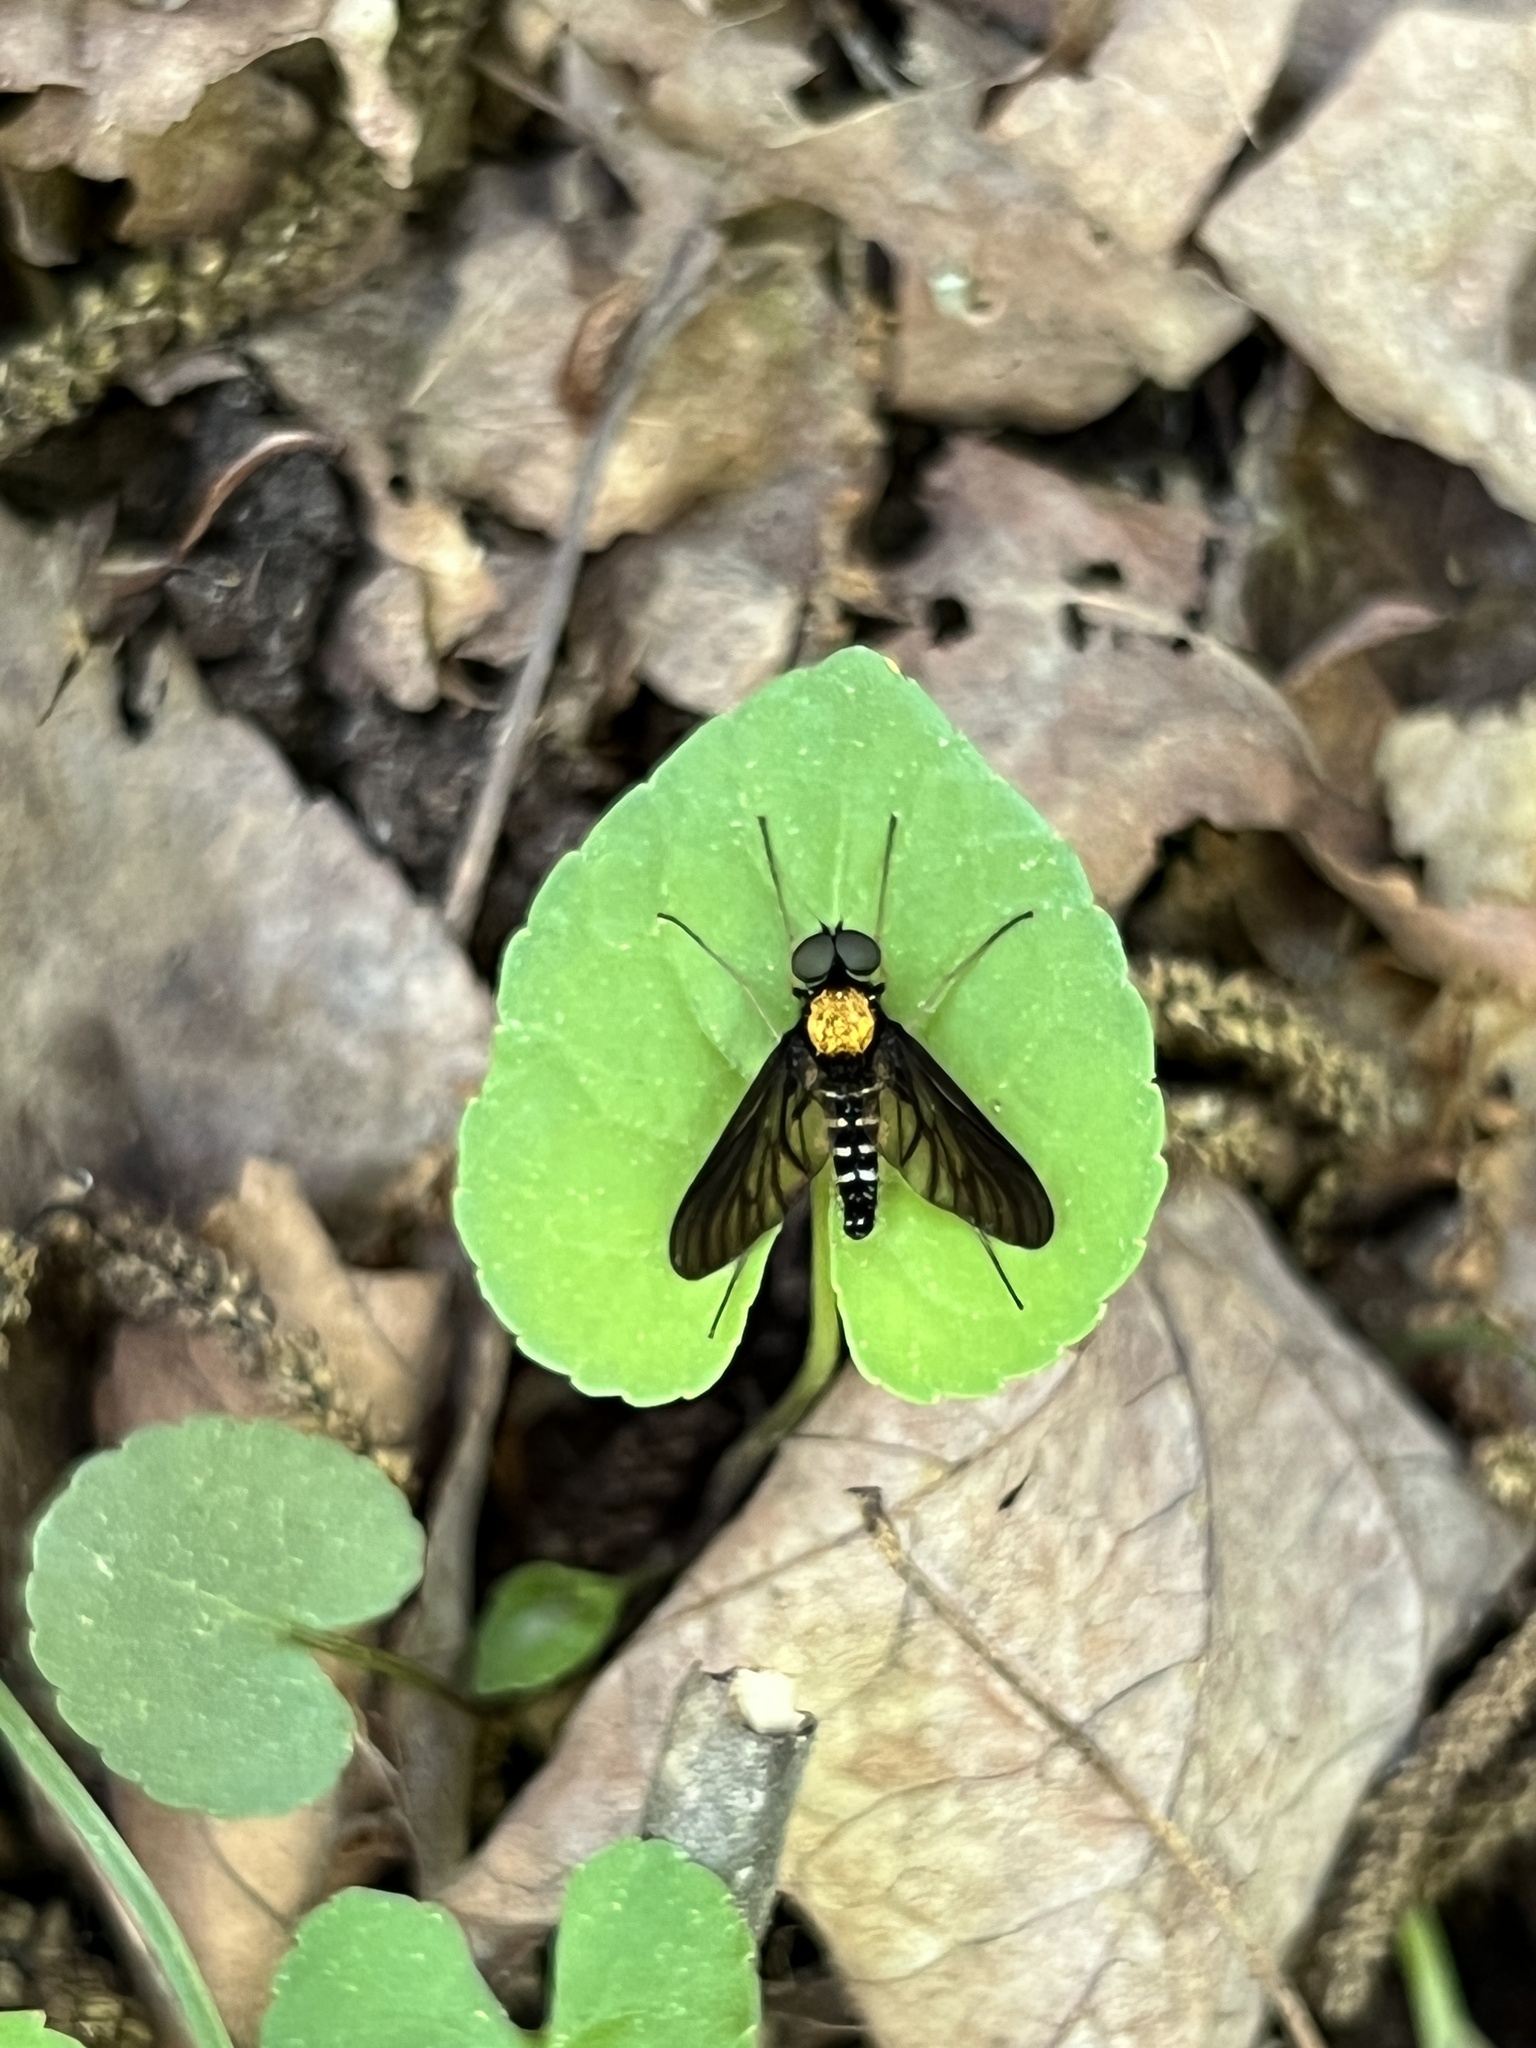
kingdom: Animalia
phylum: Arthropoda
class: Insecta
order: Diptera
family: Rhagionidae
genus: Chrysopilus
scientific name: Chrysopilus thoracicus
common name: Golden-backed snipe fly
